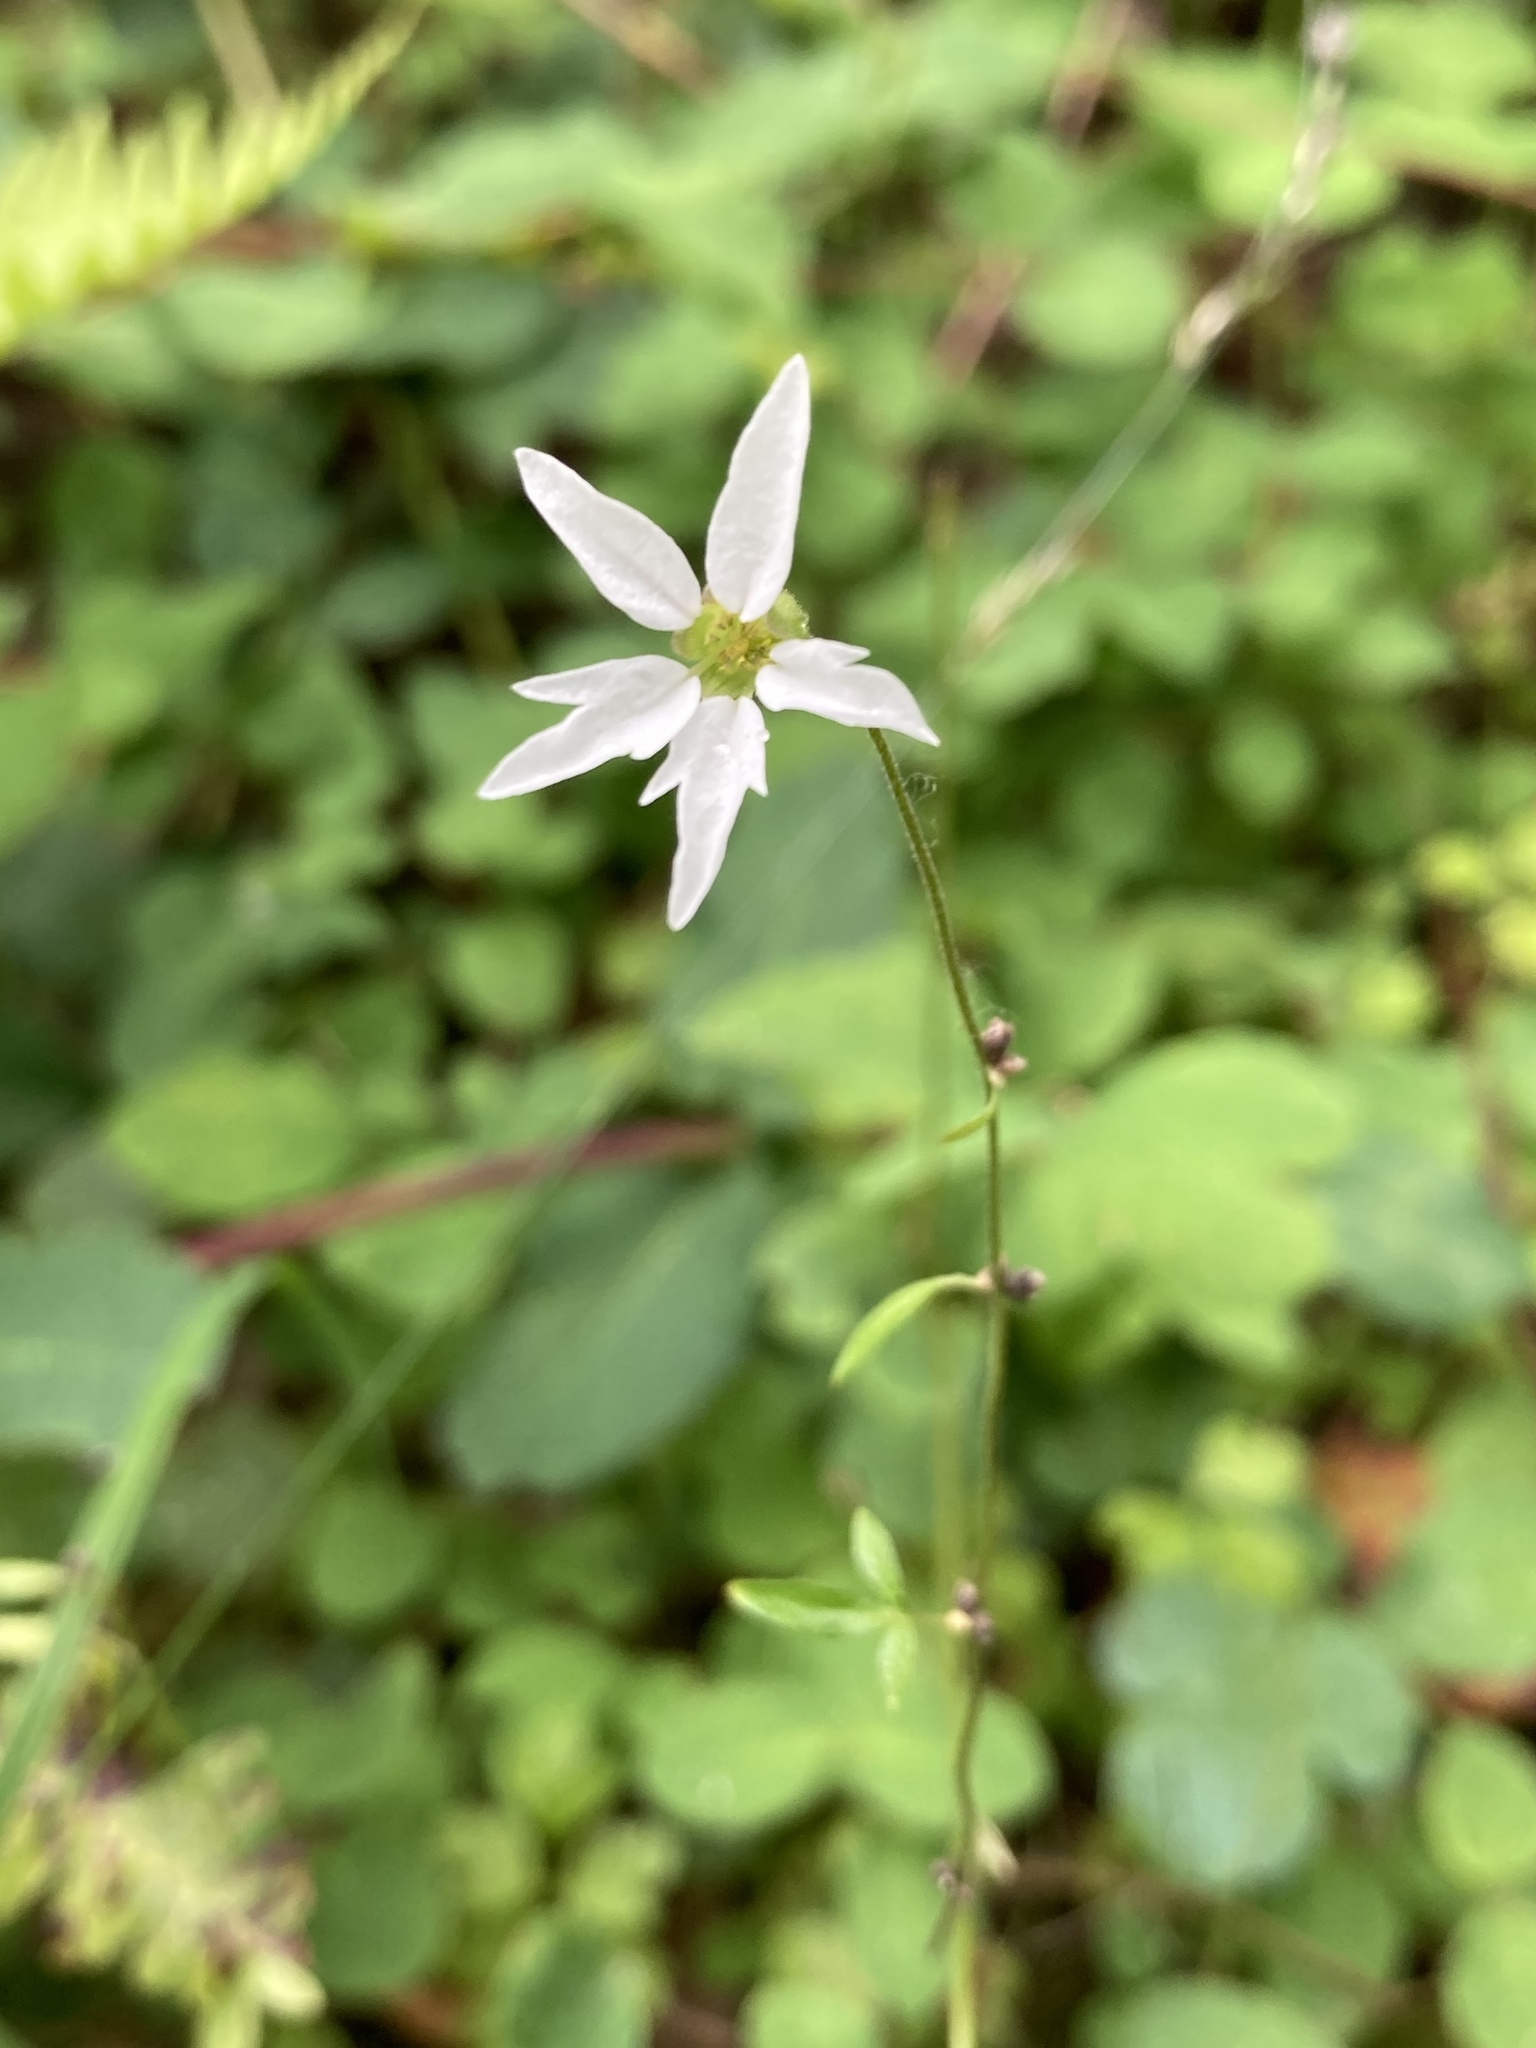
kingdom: Plantae
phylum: Tracheophyta
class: Magnoliopsida
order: Saxifragales
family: Saxifragaceae
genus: Lithophragma
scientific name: Lithophragma heterophyllum
